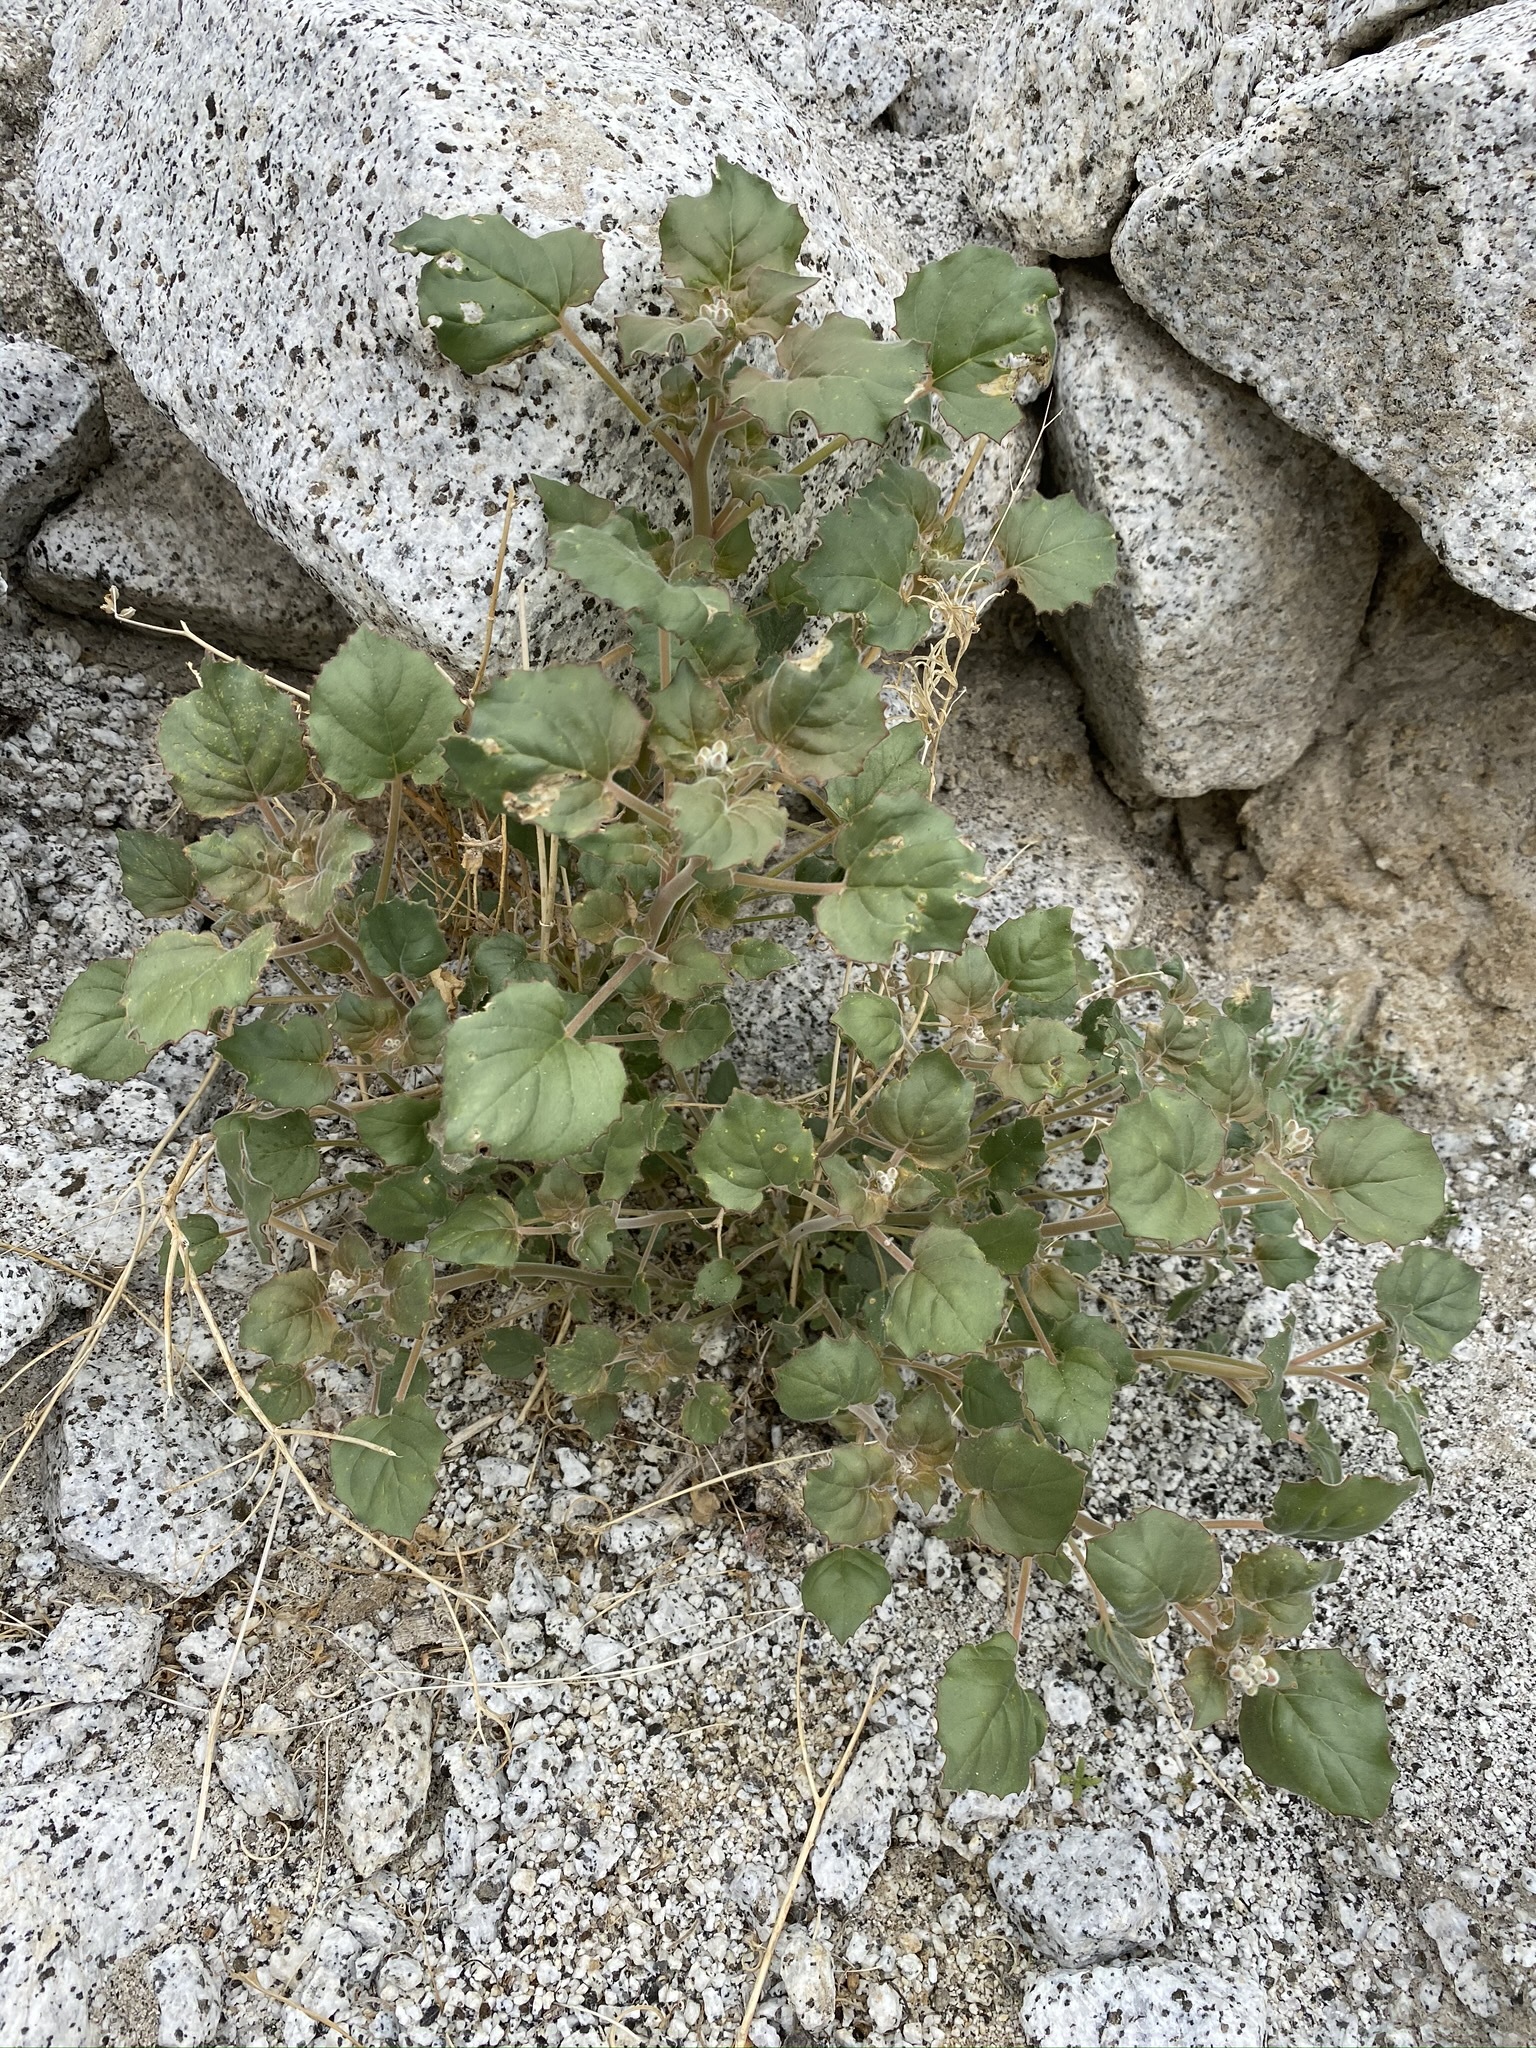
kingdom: Plantae
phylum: Tracheophyta
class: Magnoliopsida
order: Myrtales
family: Onagraceae
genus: Chylismia
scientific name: Chylismia cardiophylla
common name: Heartleaf suncup
